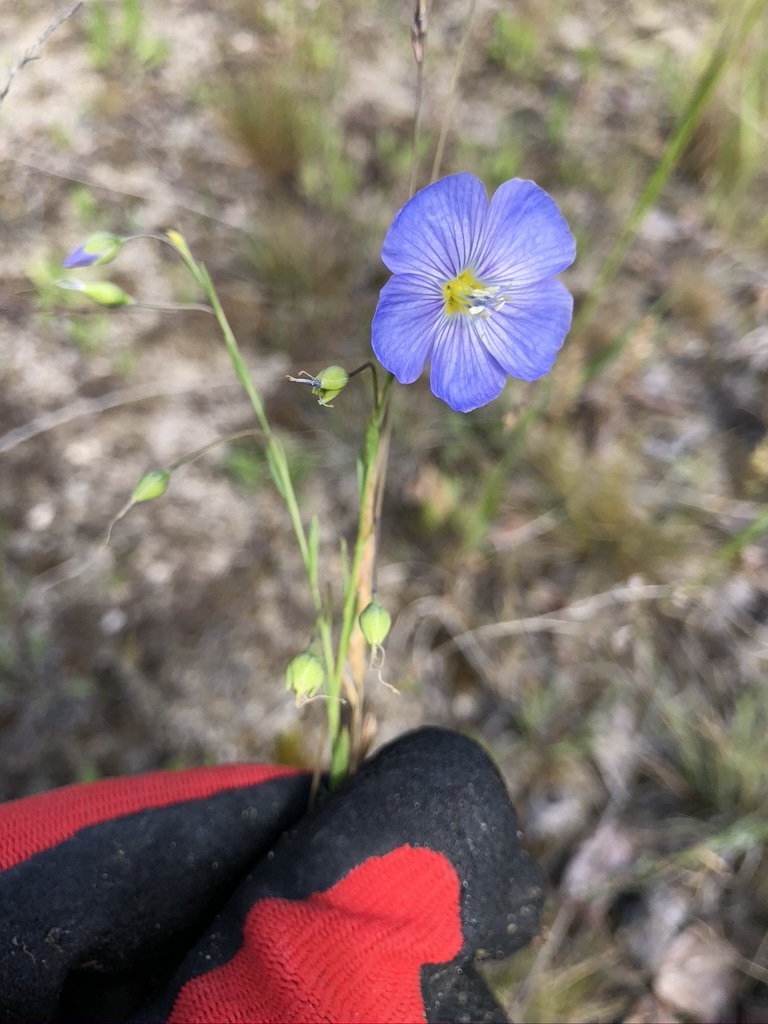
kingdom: Plantae
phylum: Tracheophyta
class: Magnoliopsida
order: Malpighiales
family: Linaceae
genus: Linum
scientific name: Linum lewisii
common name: Prairie flax
